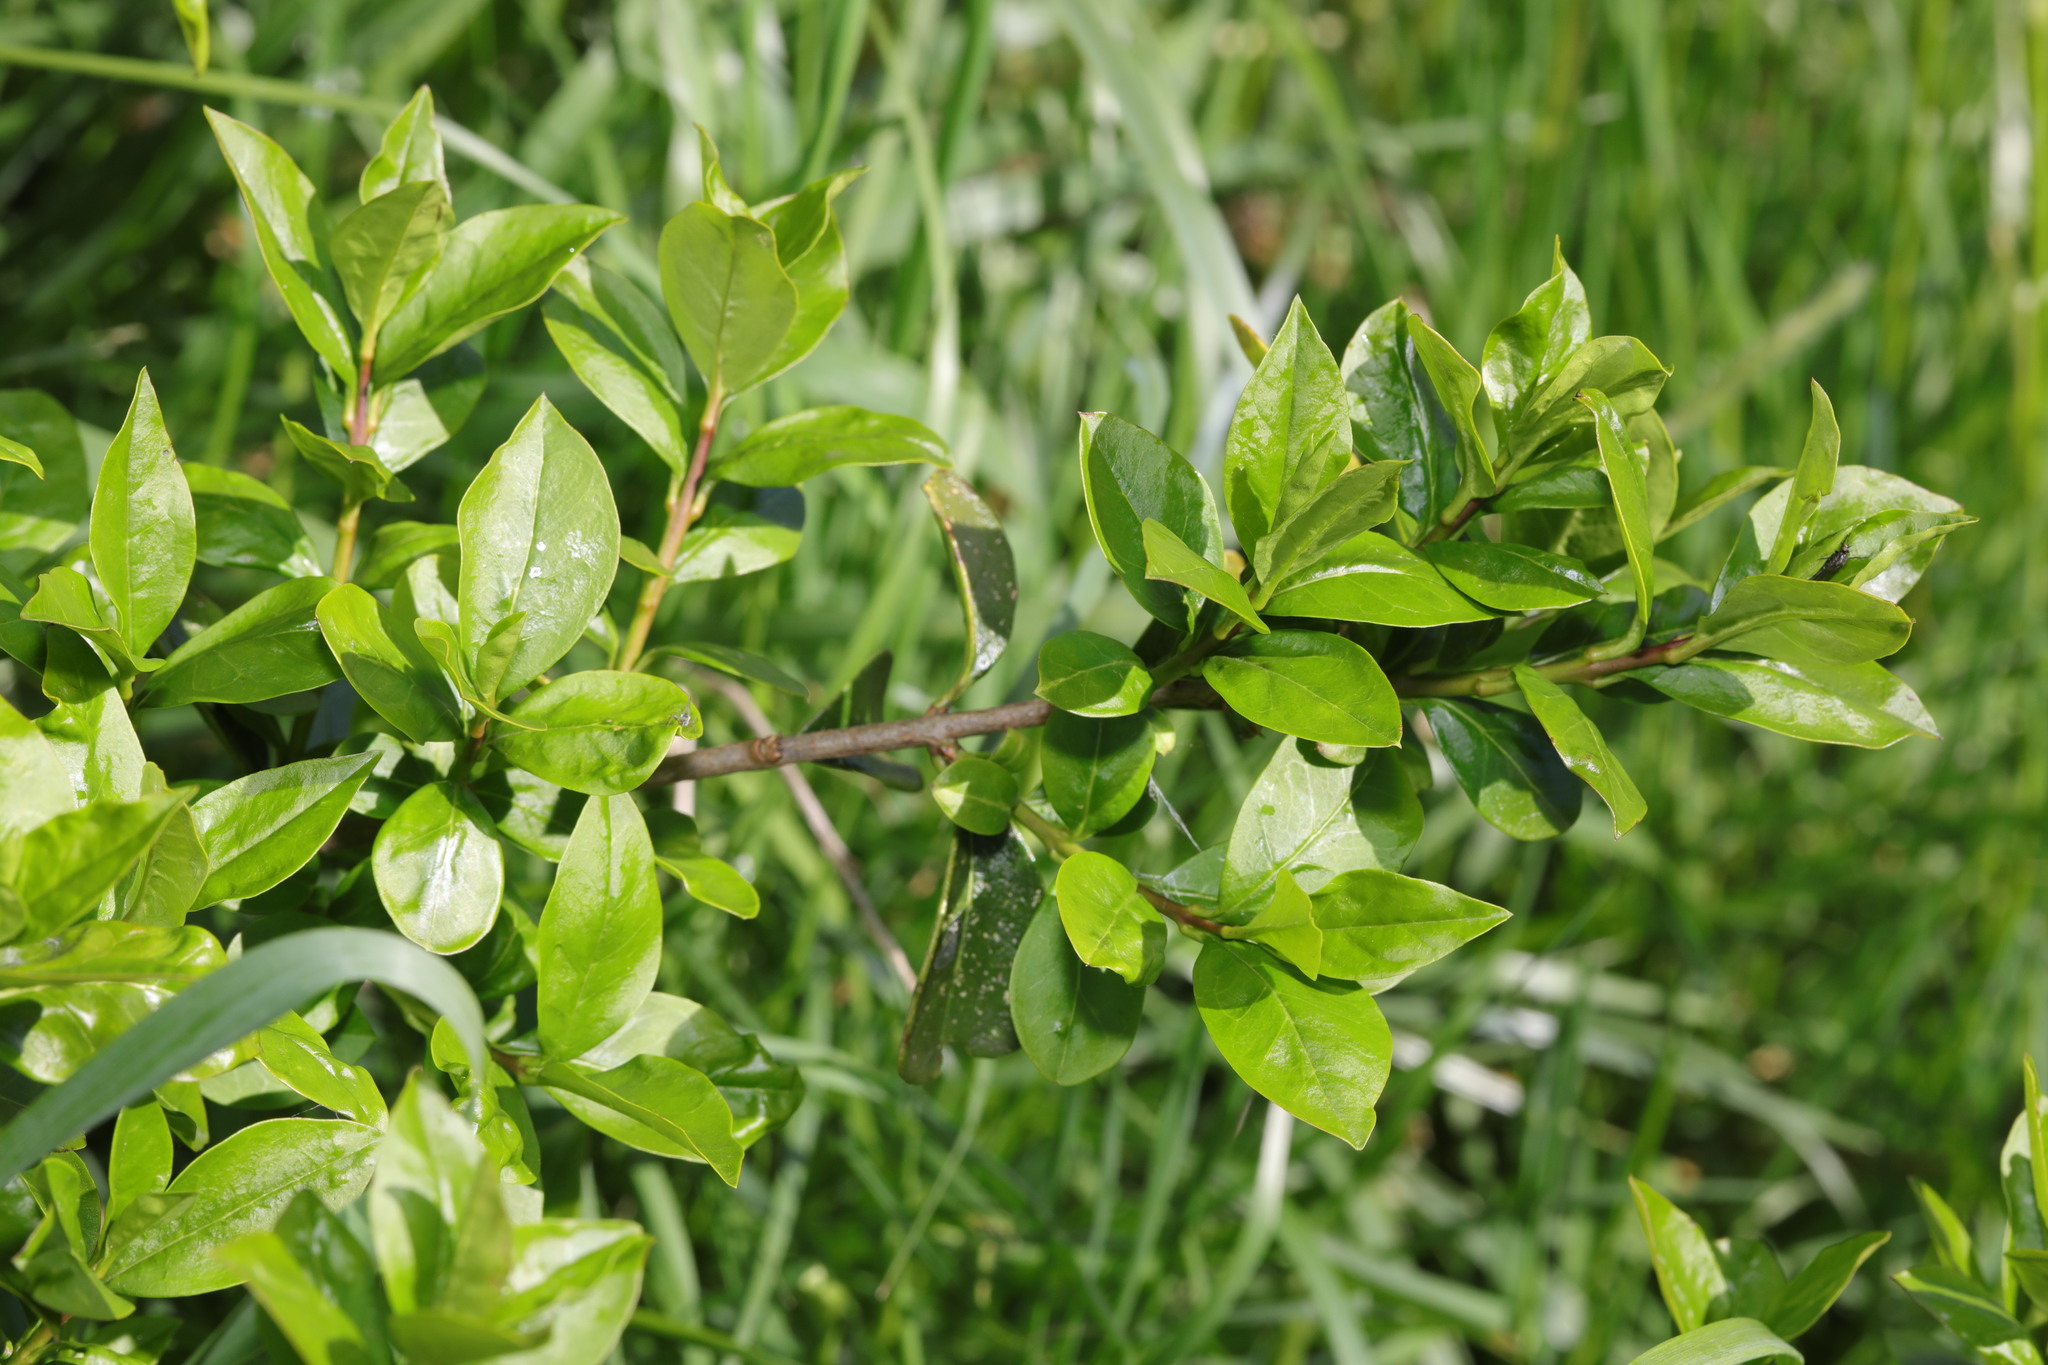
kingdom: Plantae
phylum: Tracheophyta
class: Magnoliopsida
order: Lamiales
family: Oleaceae
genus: Ligustrum
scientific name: Ligustrum ovalifolium
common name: California privet
